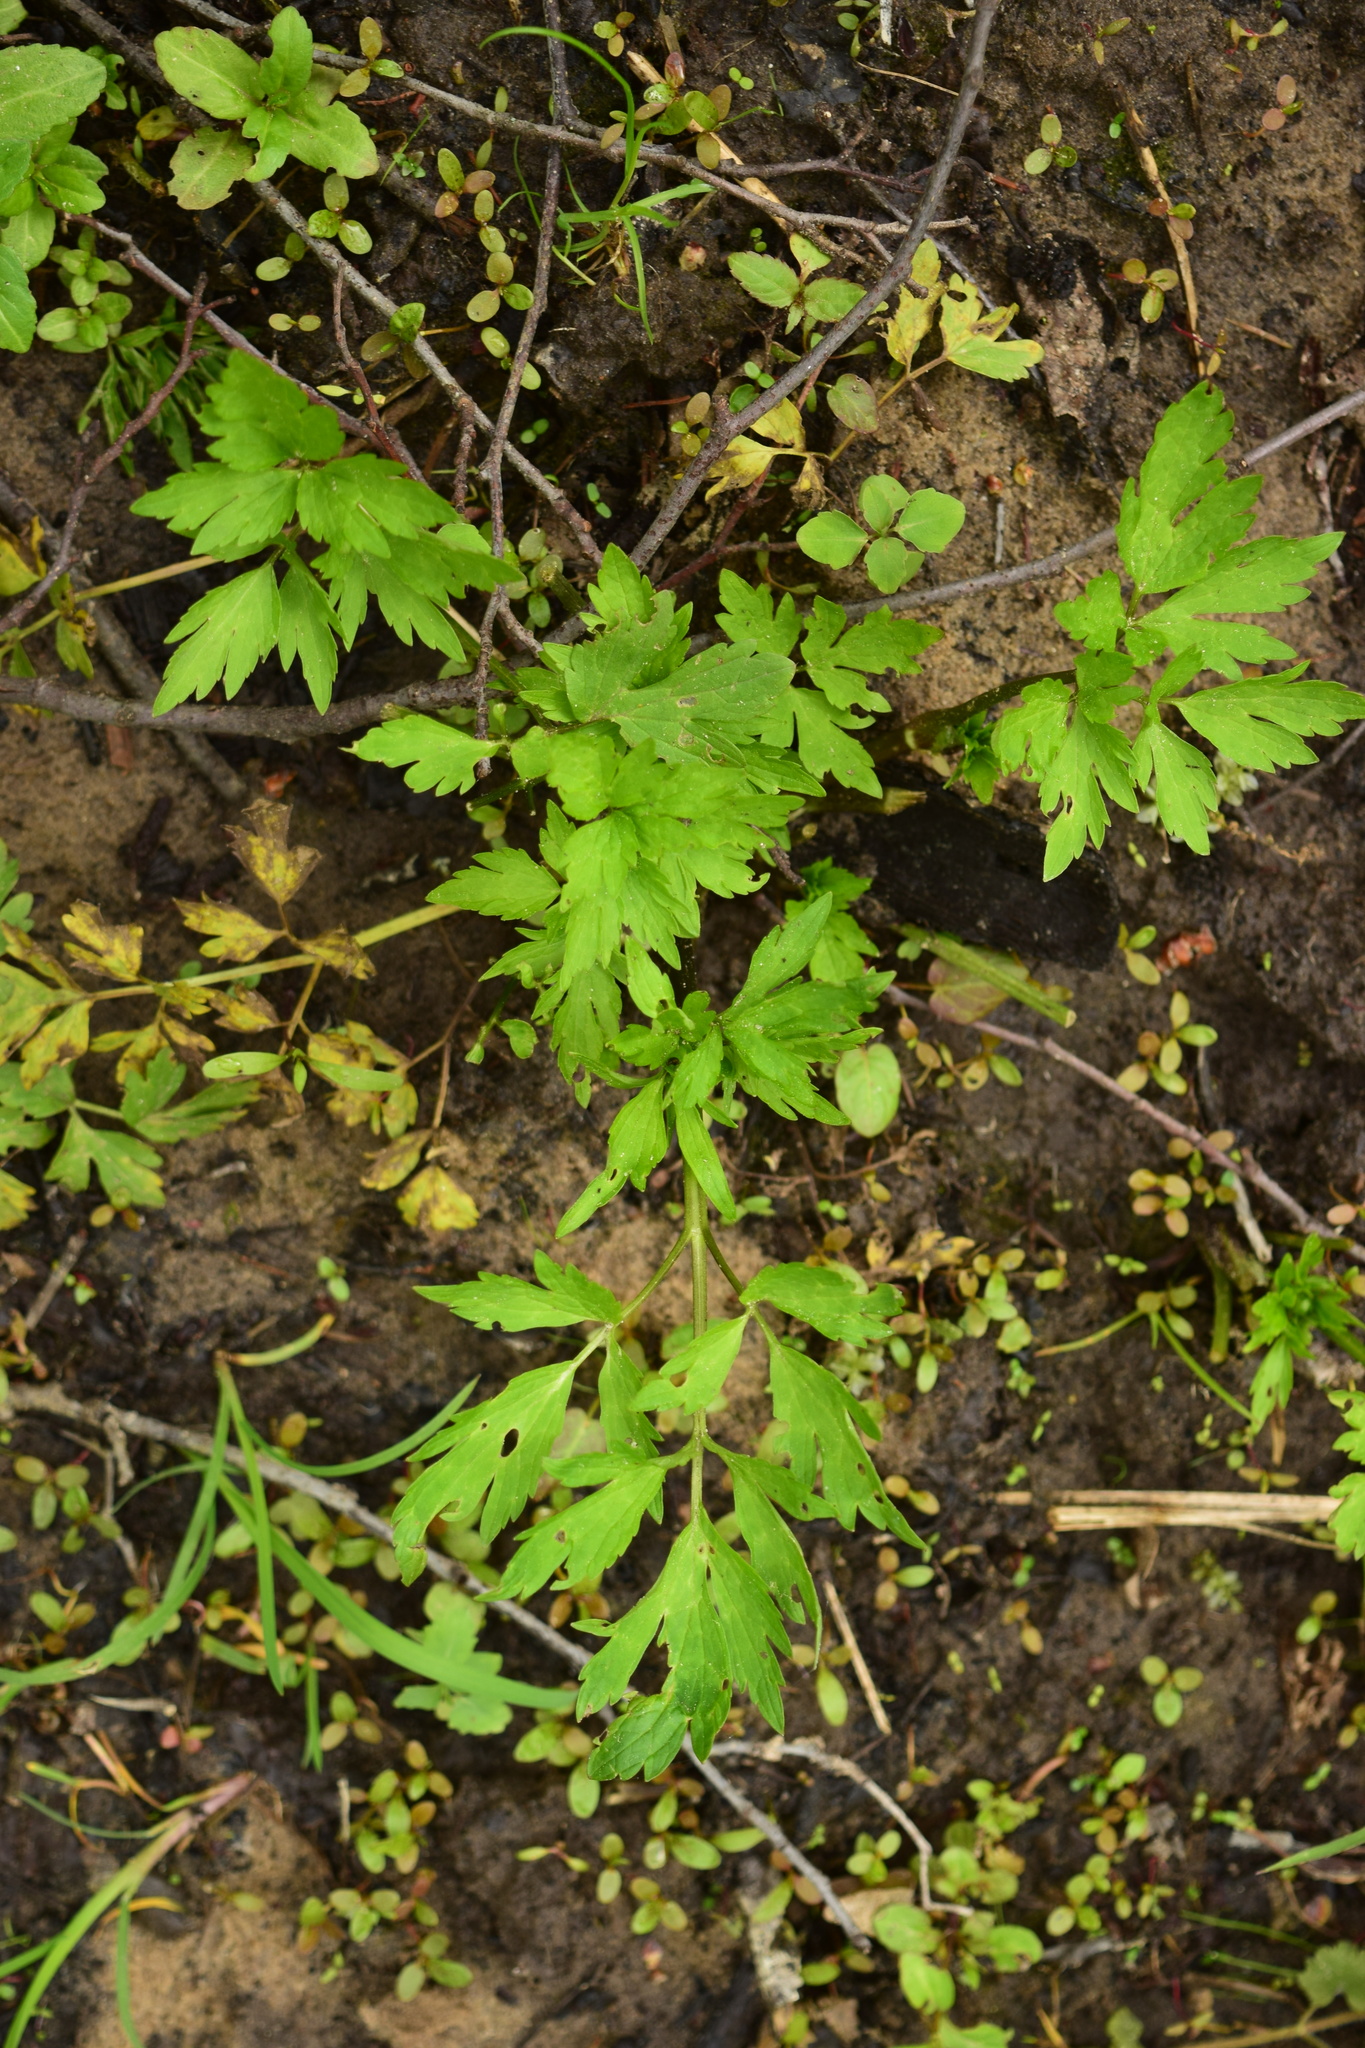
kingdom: Plantae
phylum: Tracheophyta
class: Magnoliopsida
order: Ranunculales
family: Ranunculaceae
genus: Ranunculus
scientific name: Ranunculus repens
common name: Creeping buttercup
